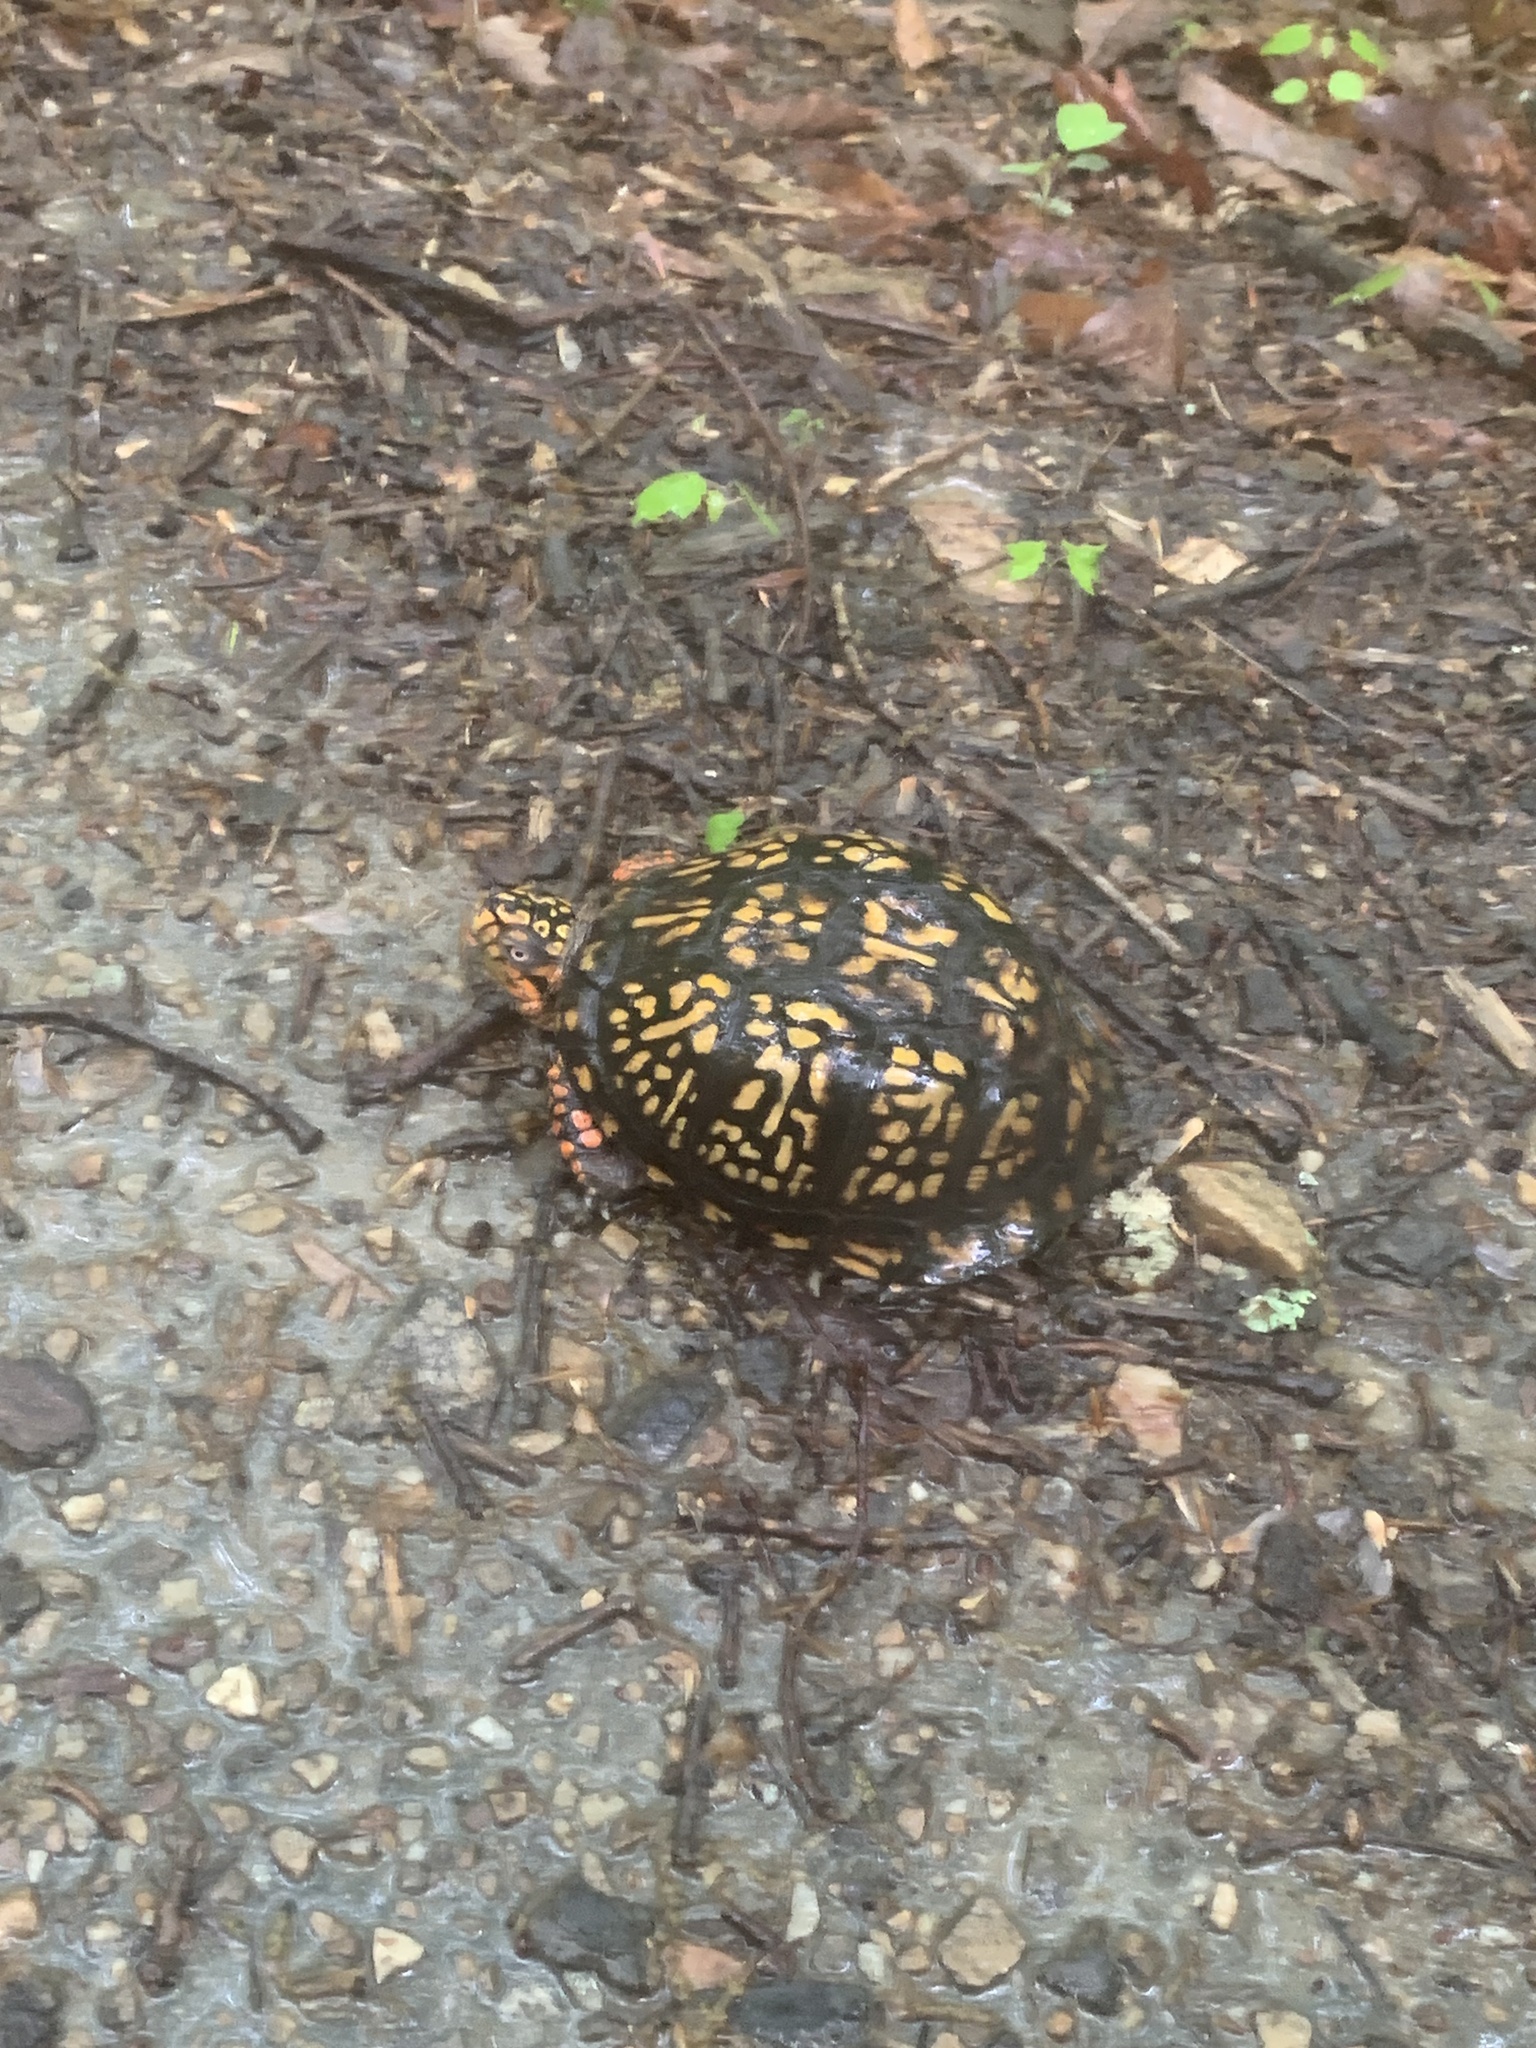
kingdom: Animalia
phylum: Chordata
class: Testudines
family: Emydidae
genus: Terrapene
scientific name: Terrapene carolina
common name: Common box turtle
